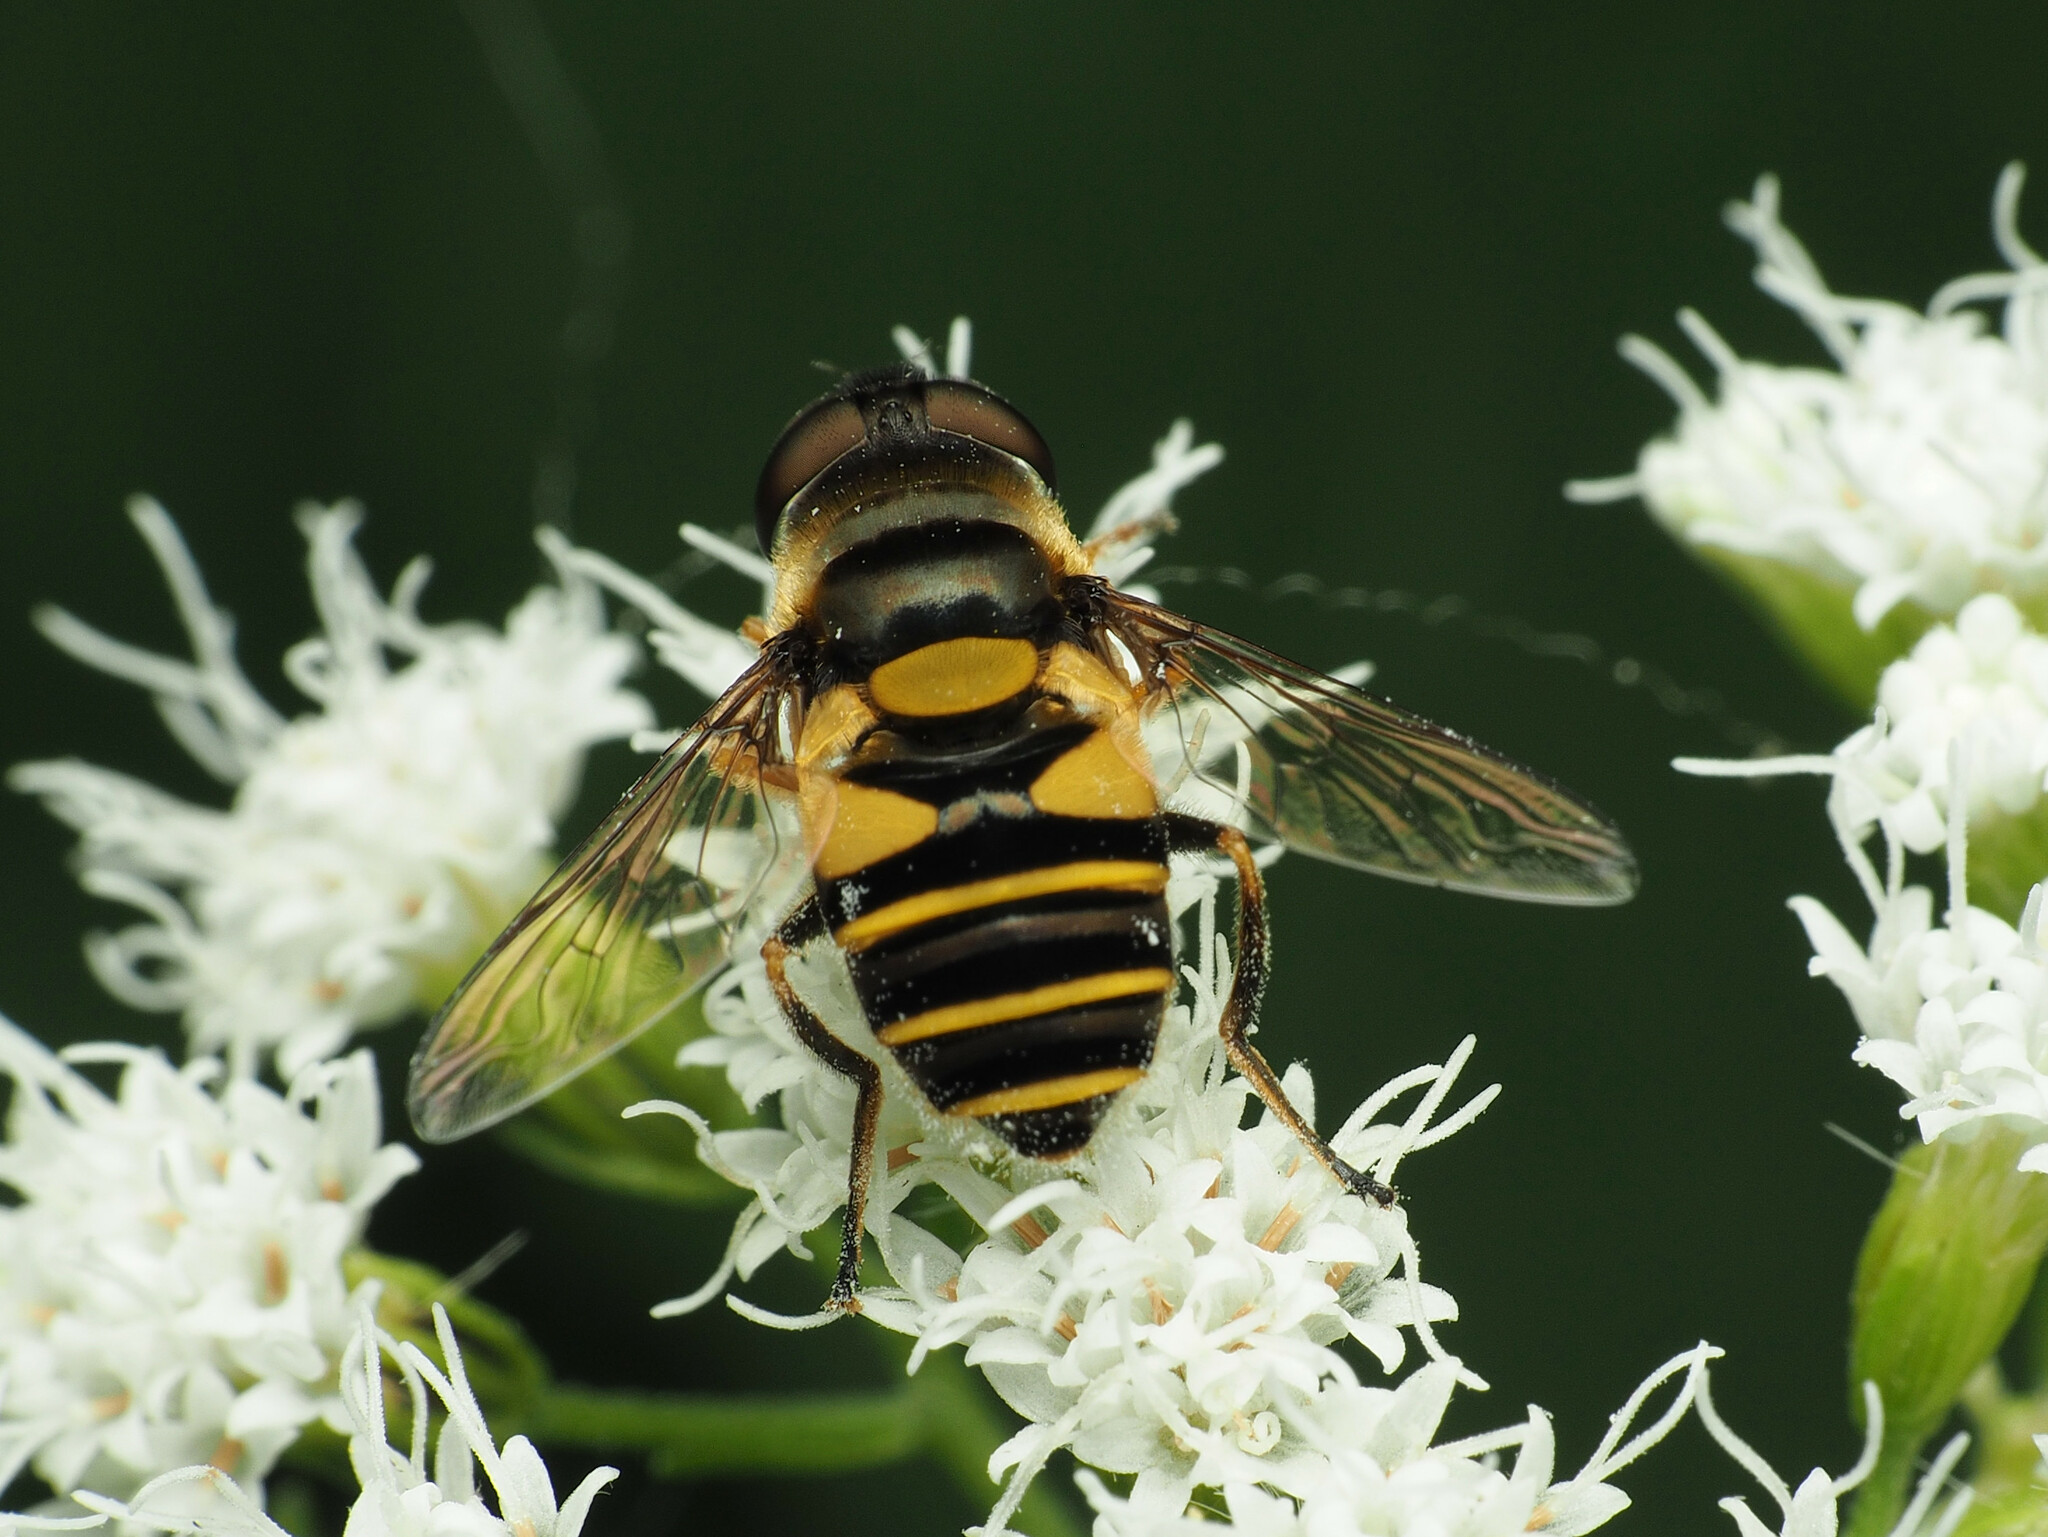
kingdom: Animalia
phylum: Arthropoda
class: Insecta
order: Diptera
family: Syrphidae
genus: Eristalis
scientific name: Eristalis transversa
